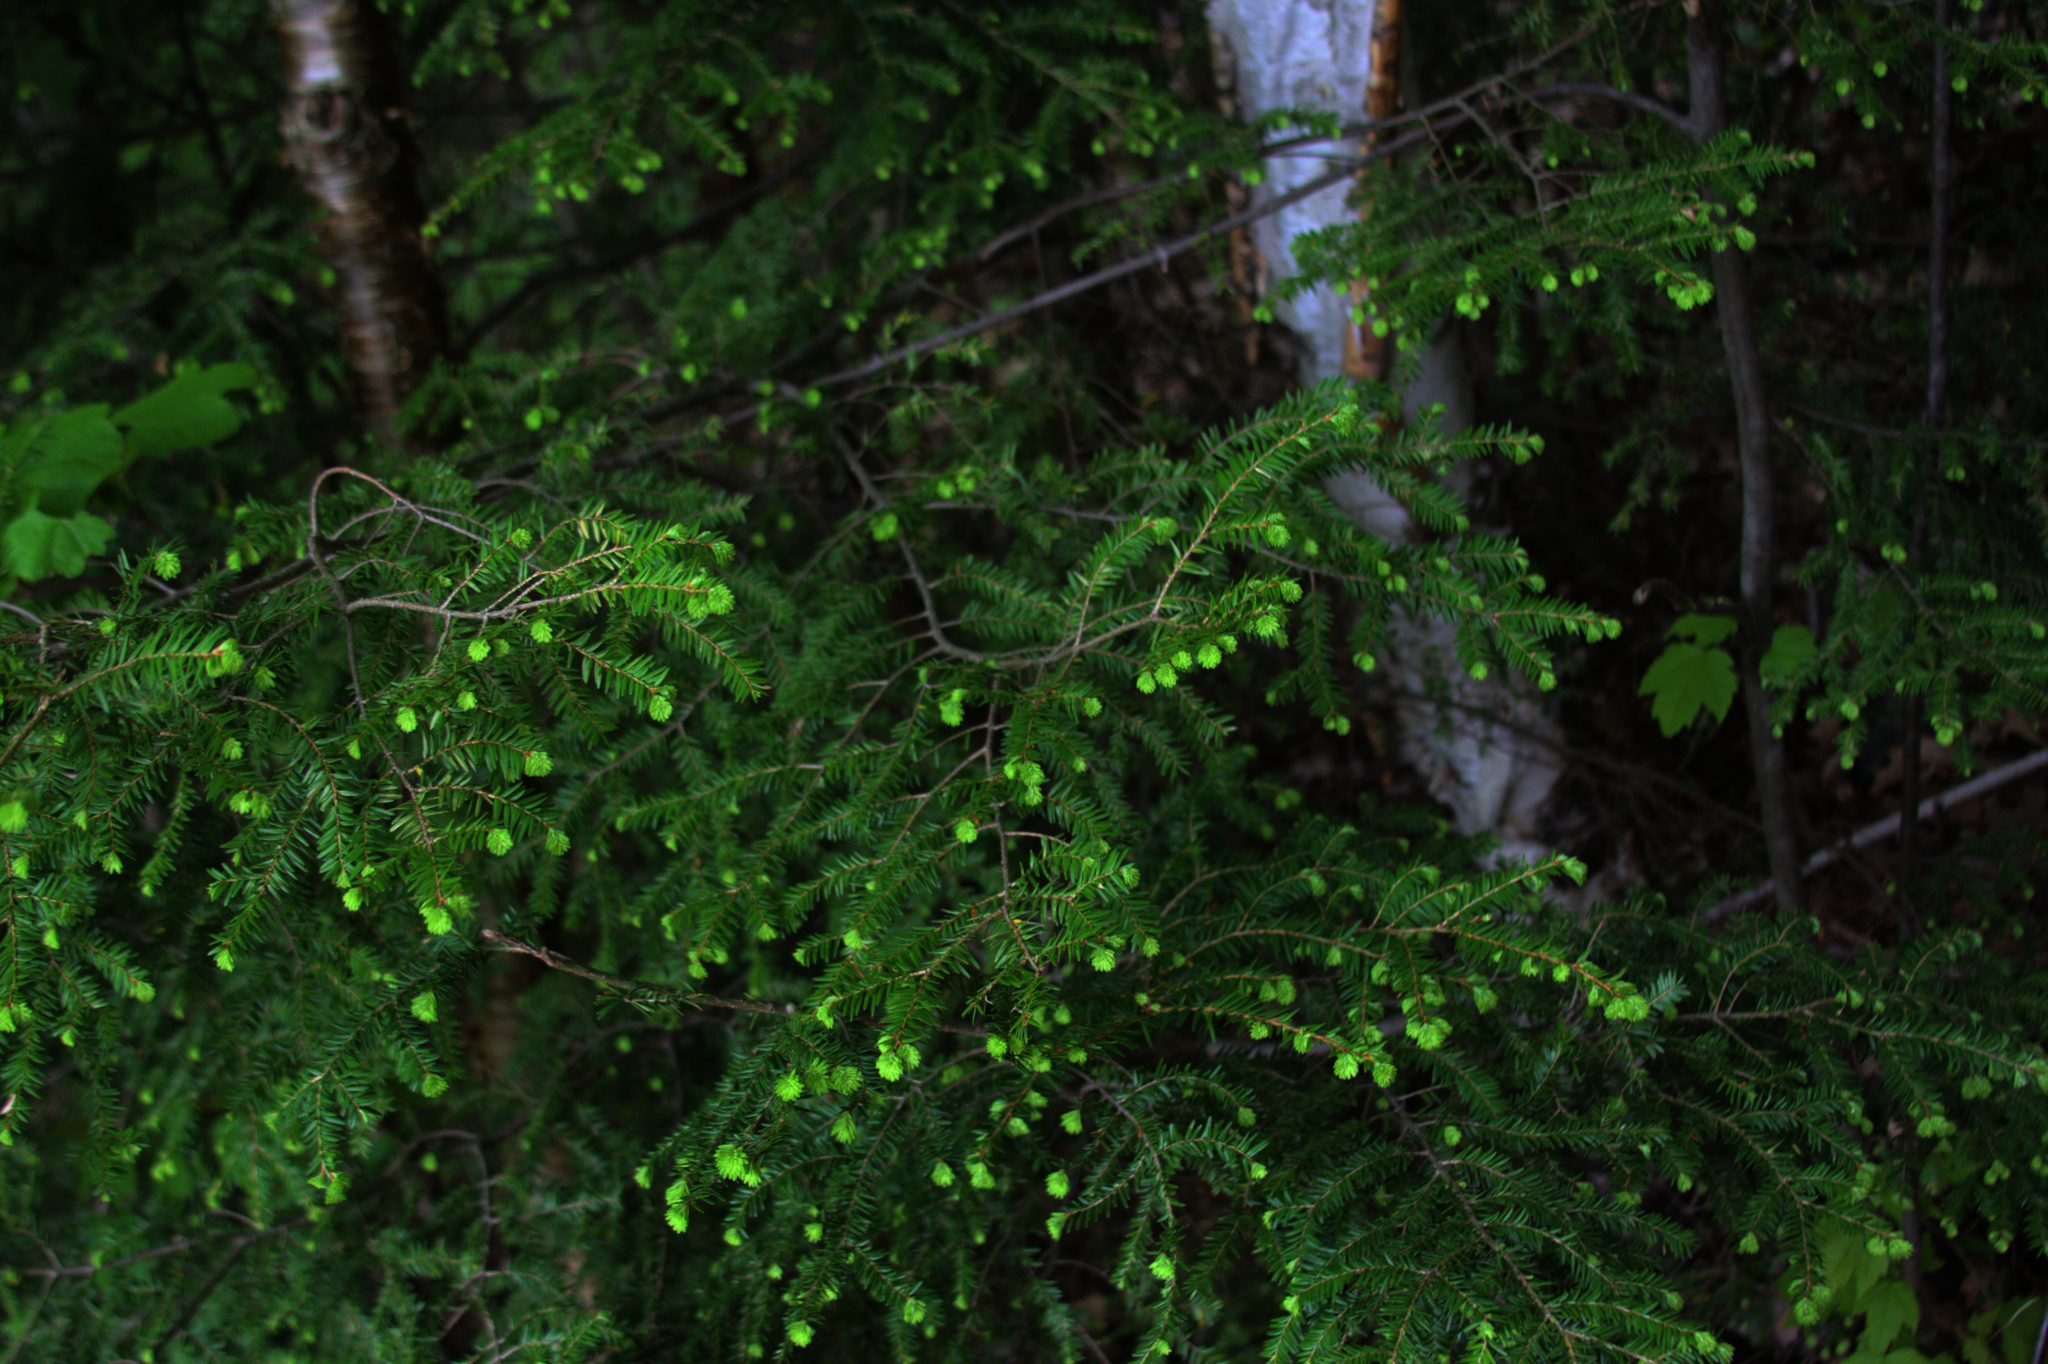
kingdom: Plantae
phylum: Tracheophyta
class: Pinopsida
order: Pinales
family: Pinaceae
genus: Tsuga
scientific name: Tsuga canadensis
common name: Eastern hemlock
